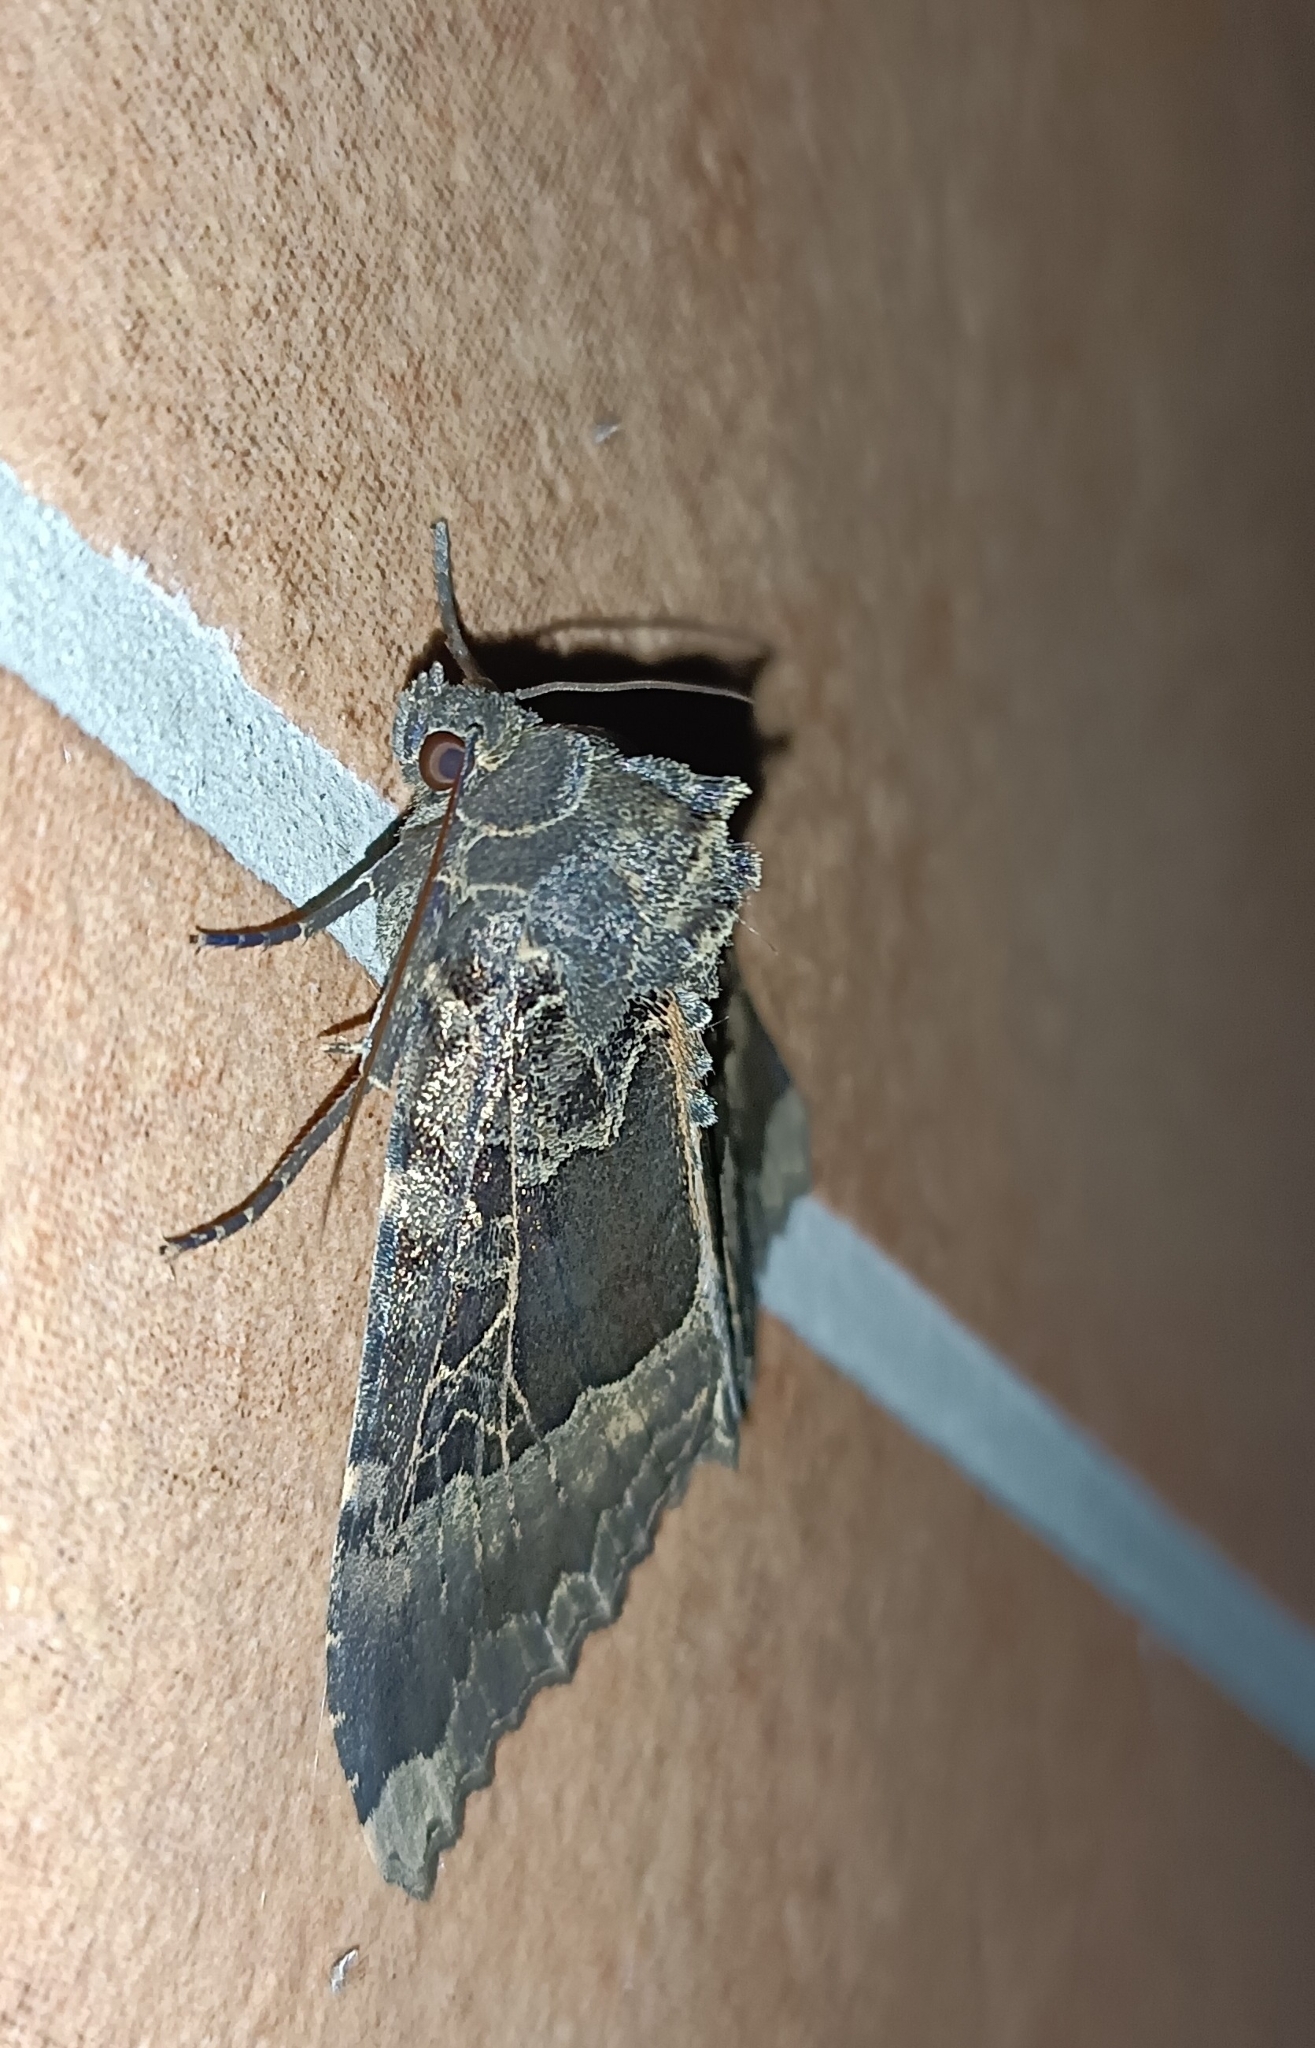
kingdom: Animalia
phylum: Arthropoda
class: Insecta
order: Lepidoptera
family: Noctuidae
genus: Mormo
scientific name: Mormo maura
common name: Old lady
